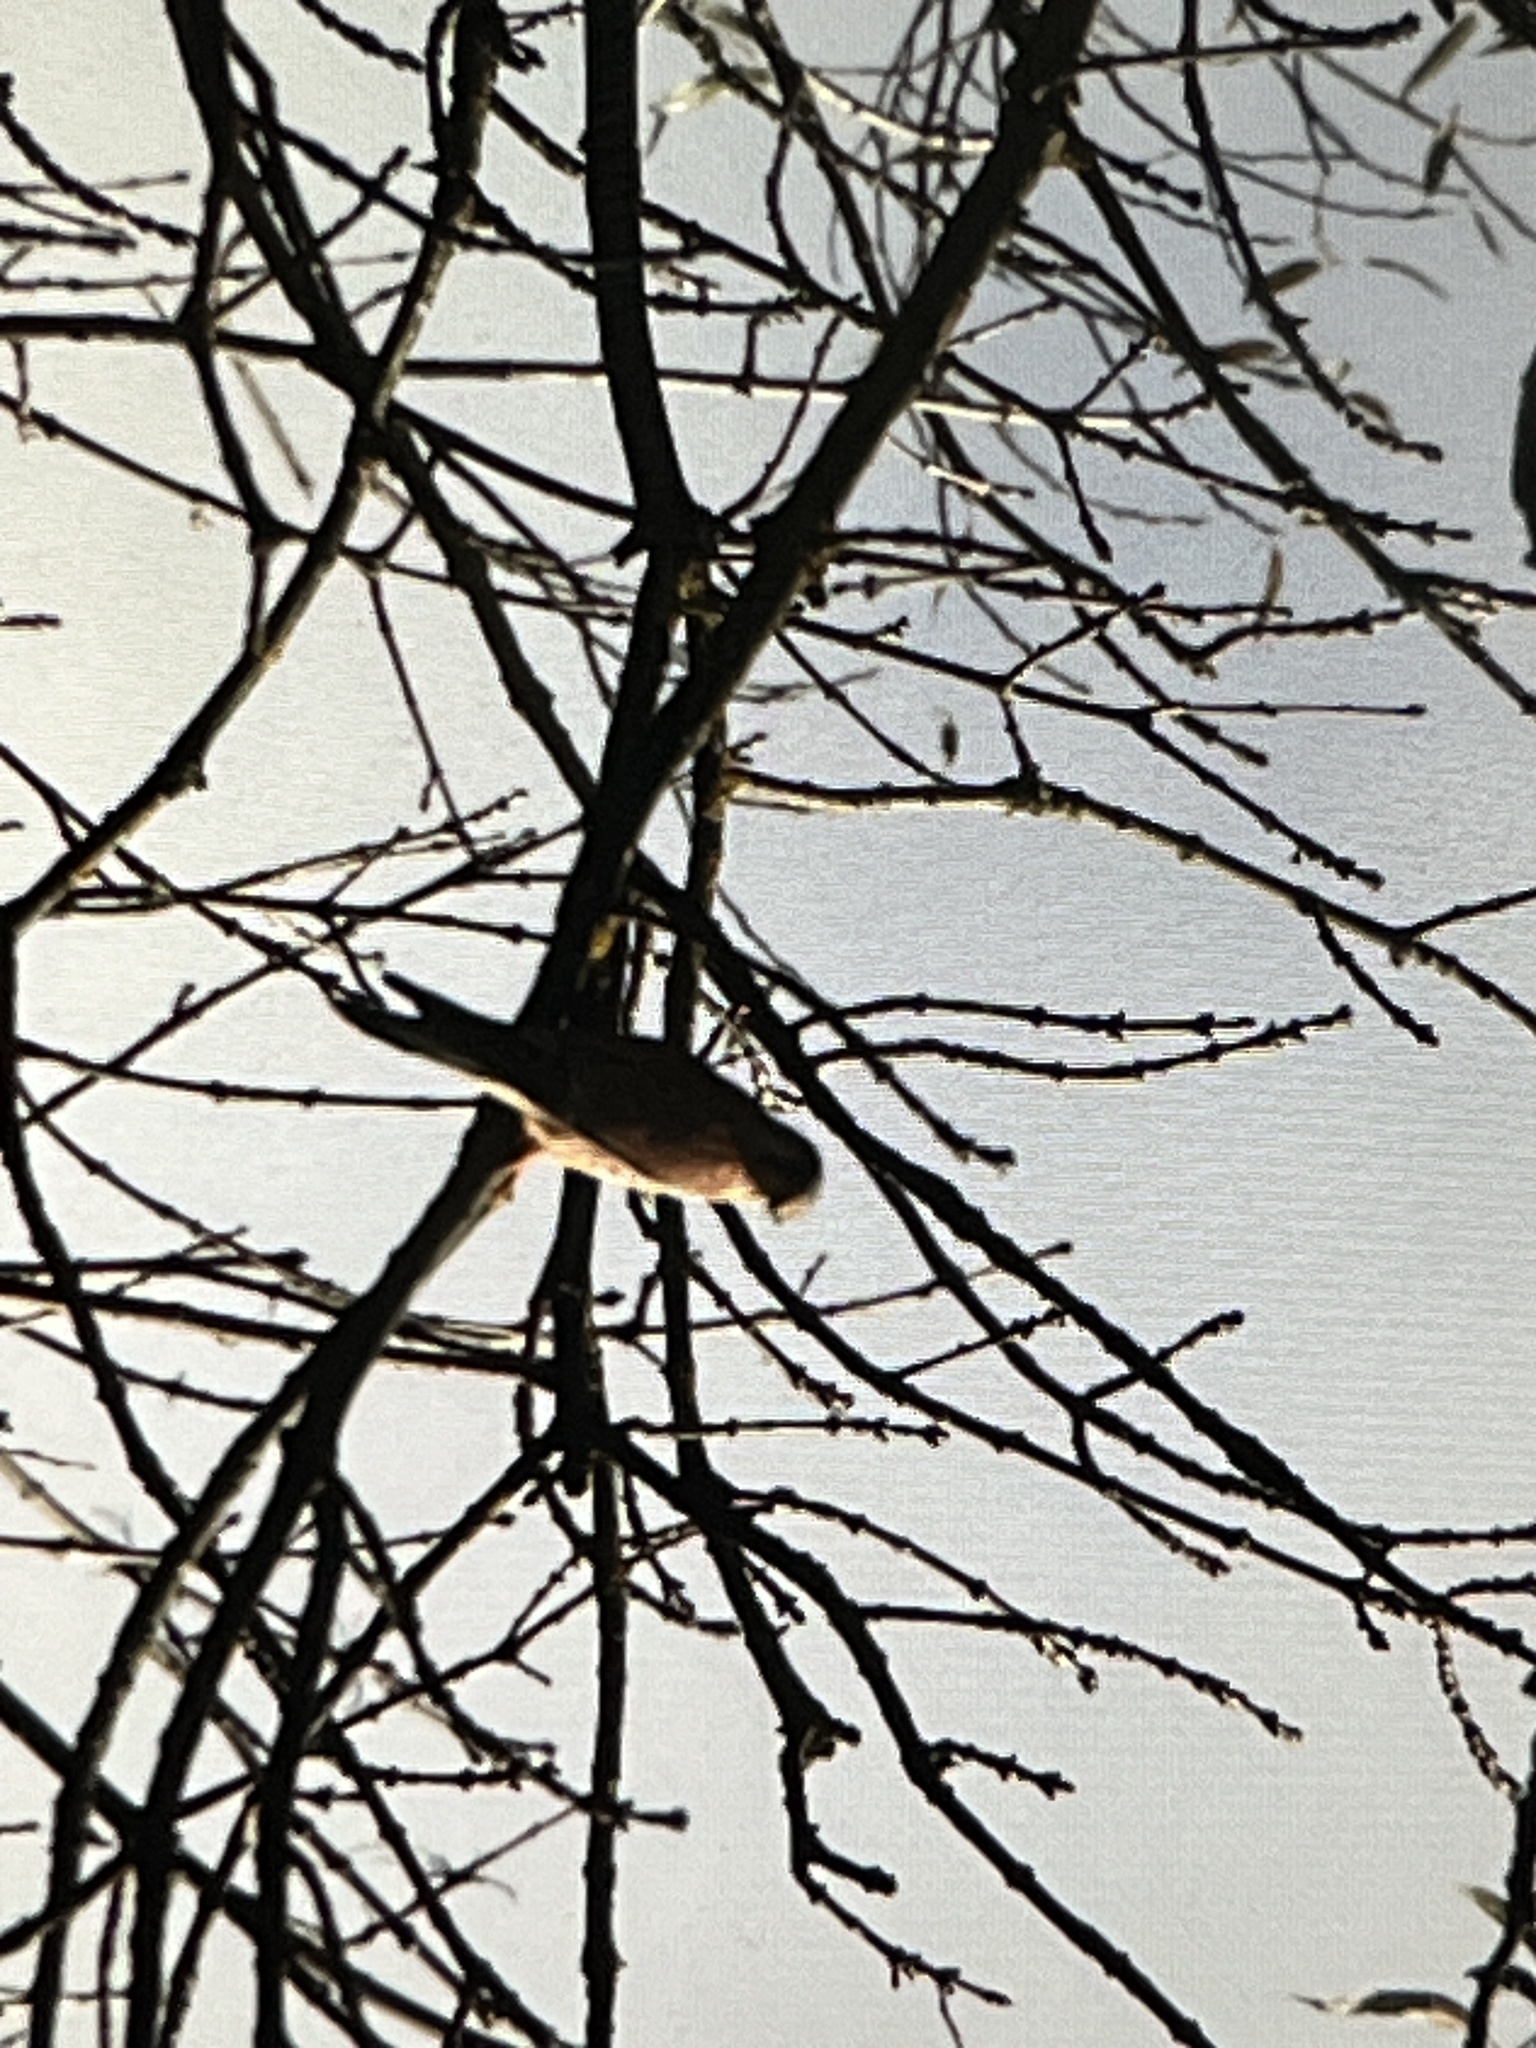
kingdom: Animalia
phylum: Chordata
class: Aves
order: Falconiformes
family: Falconidae
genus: Falco
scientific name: Falco tinnunculus
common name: Common kestrel
